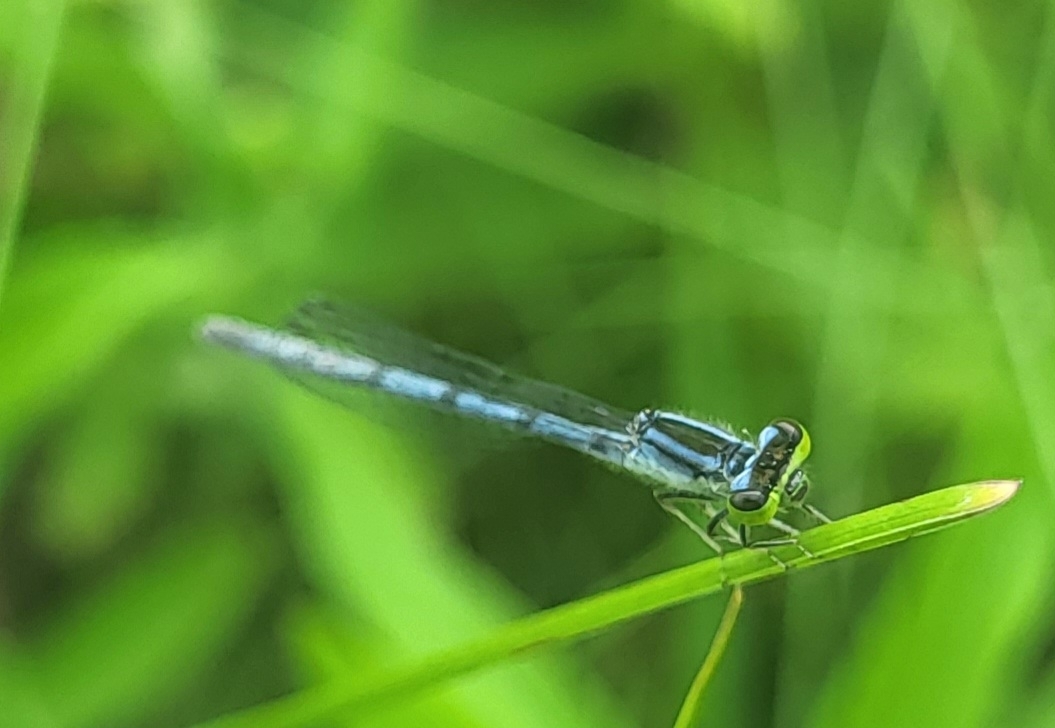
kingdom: Animalia
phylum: Arthropoda
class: Insecta
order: Odonata
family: Coenagrionidae
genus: Ischnura
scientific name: Ischnura verticalis
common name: Eastern forktail
